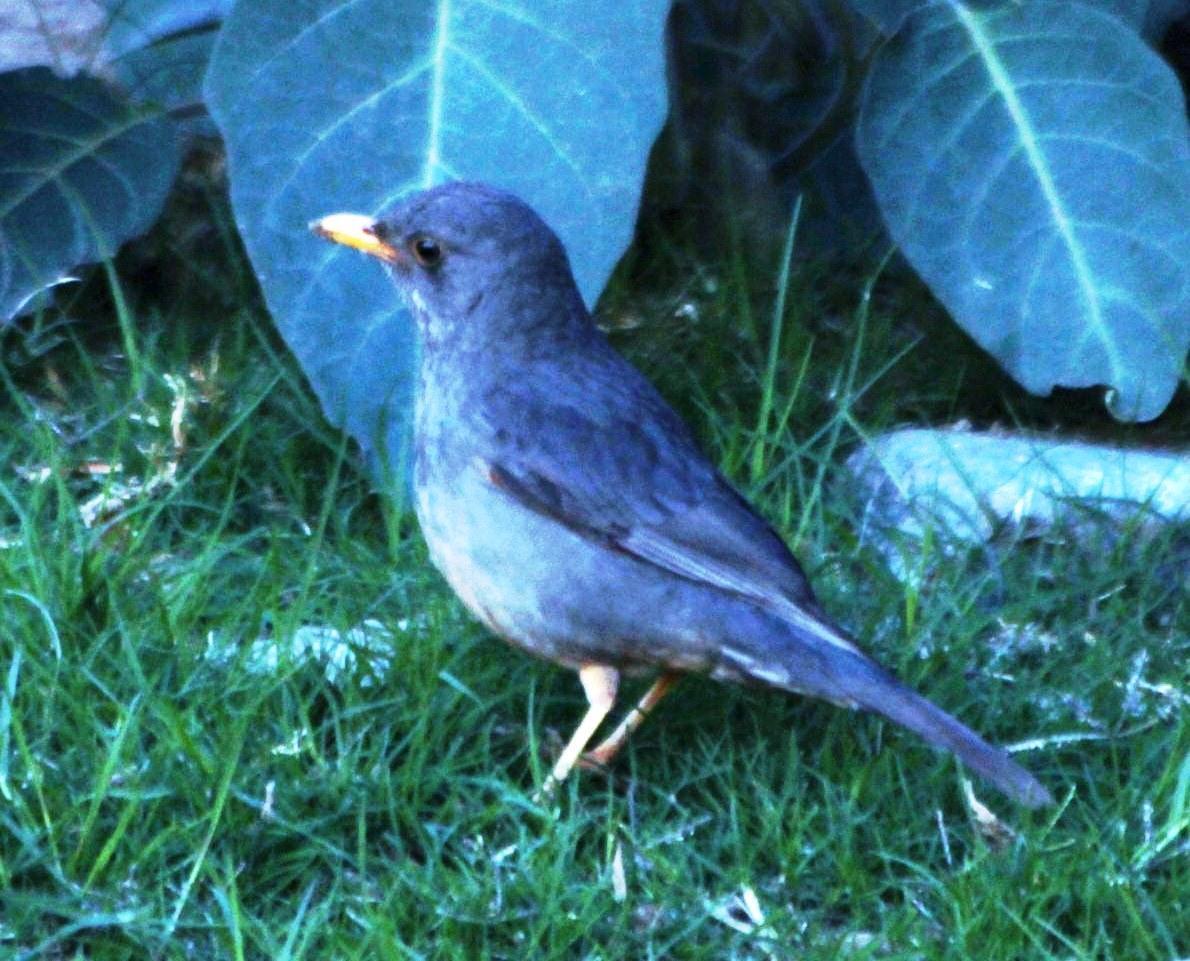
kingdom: Animalia
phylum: Chordata
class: Aves
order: Passeriformes
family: Turdidae
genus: Turdus
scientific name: Turdus smithi
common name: Karoo thrush
